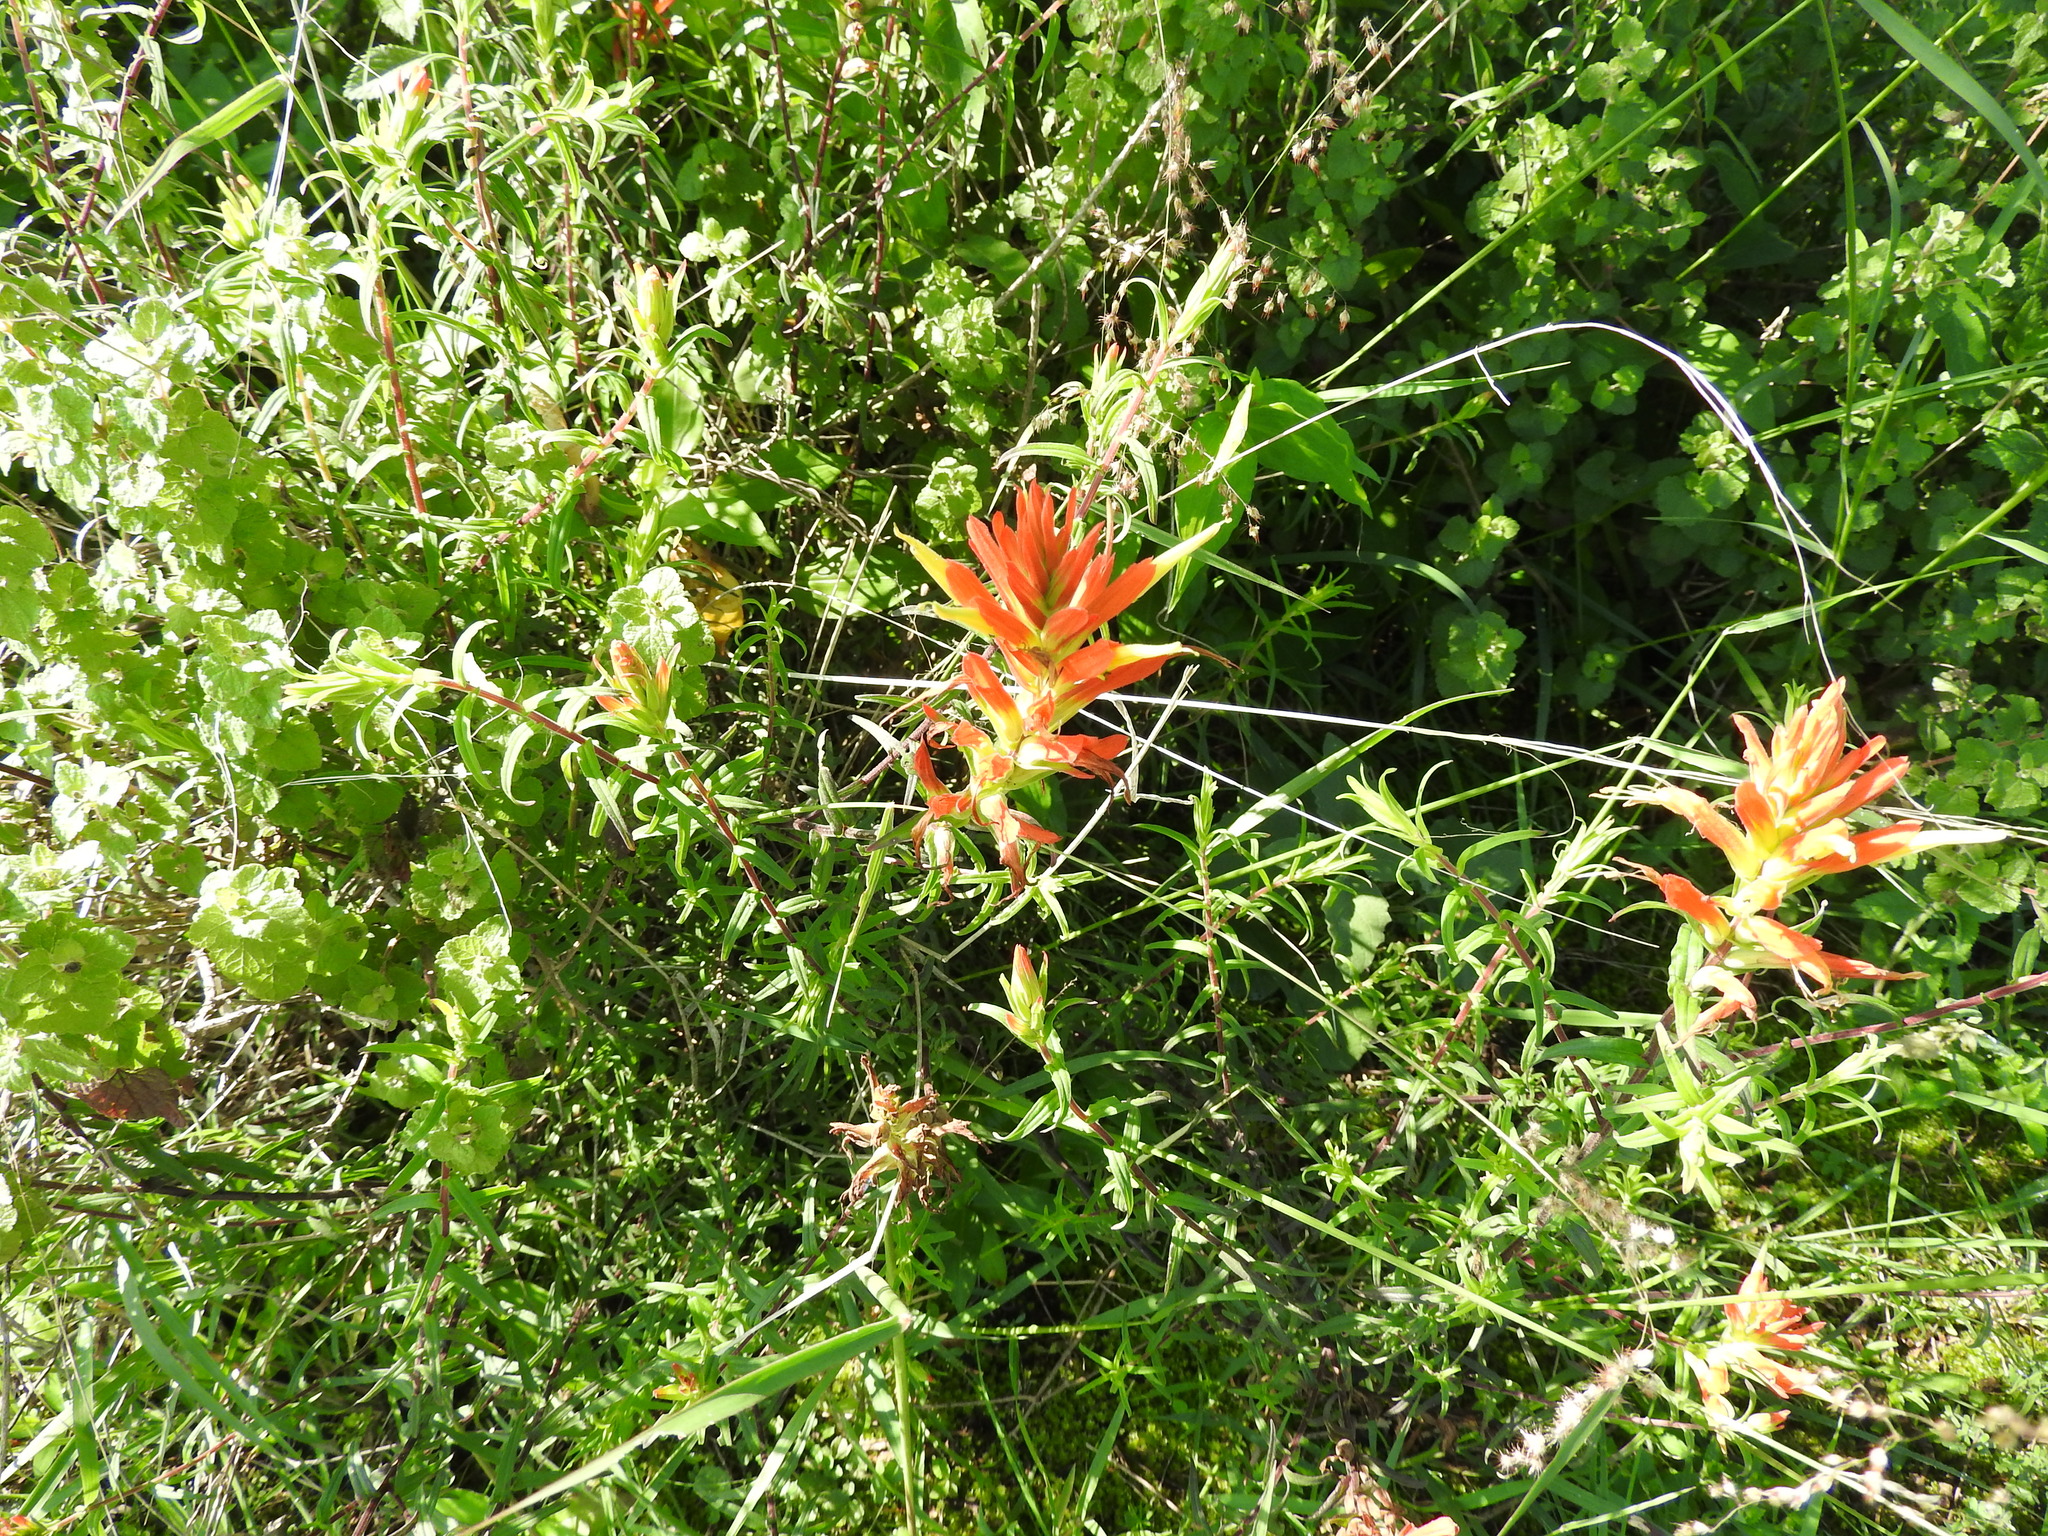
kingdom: Plantae
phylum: Tracheophyta
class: Magnoliopsida
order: Lamiales
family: Orobanchaceae
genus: Castilleja
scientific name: Castilleja tenuiflora
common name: Santa catalina indian paintbrush
